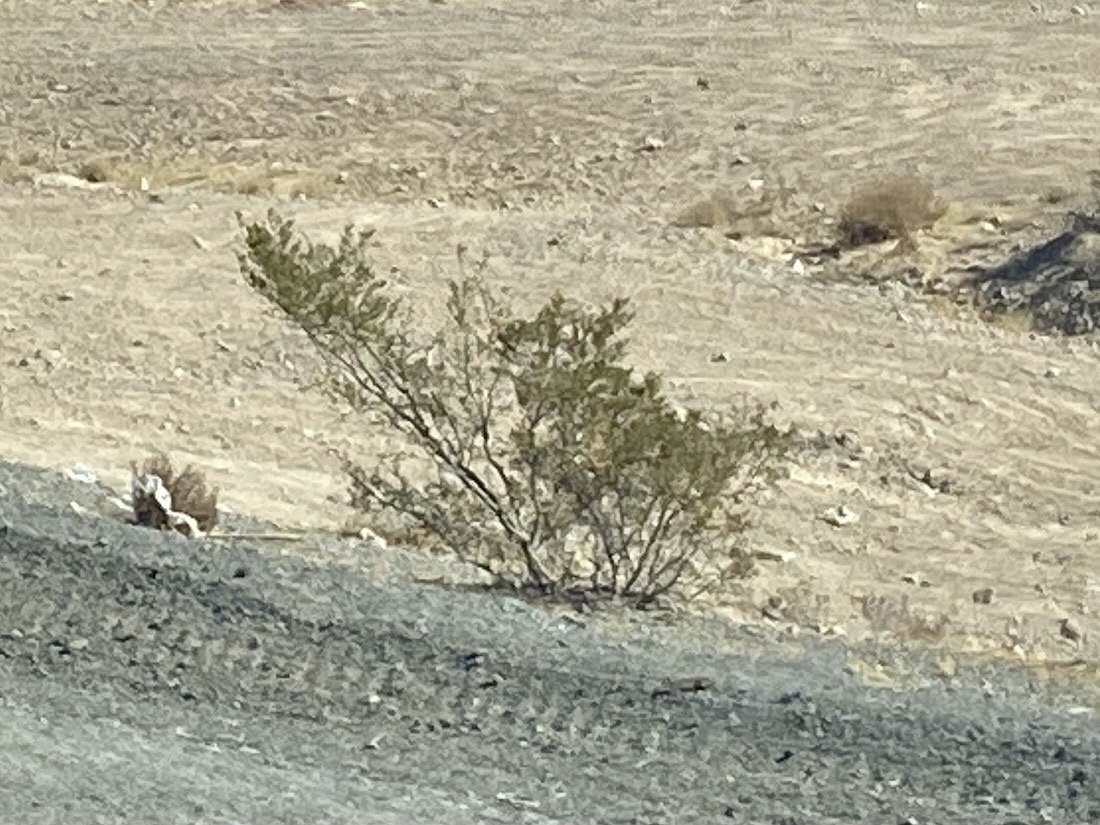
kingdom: Plantae
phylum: Tracheophyta
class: Magnoliopsida
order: Zygophyllales
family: Zygophyllaceae
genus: Larrea
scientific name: Larrea tridentata
